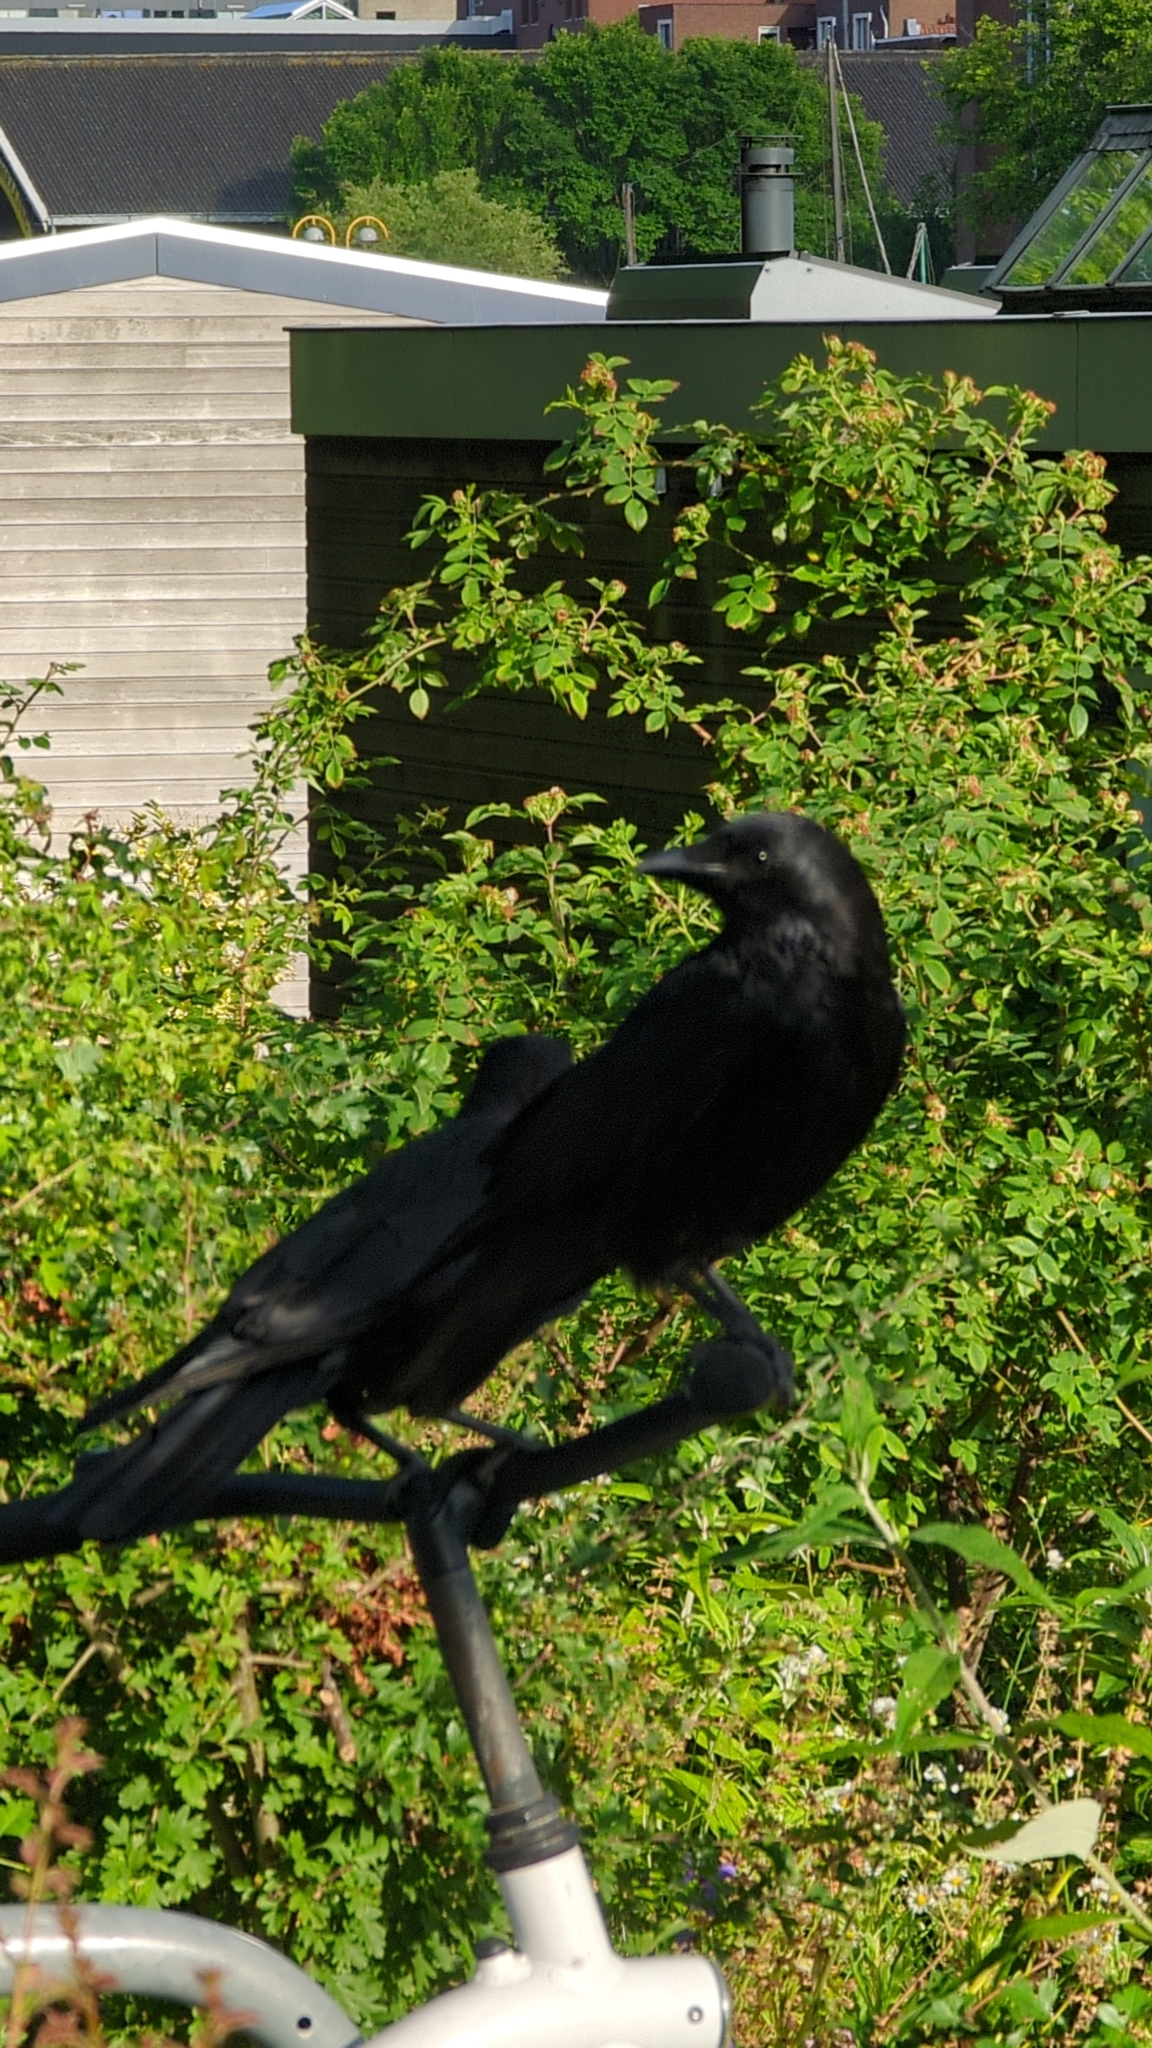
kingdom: Animalia
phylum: Chordata
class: Aves
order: Passeriformes
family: Corvidae
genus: Corvus
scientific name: Corvus corone
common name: Carrion crow
